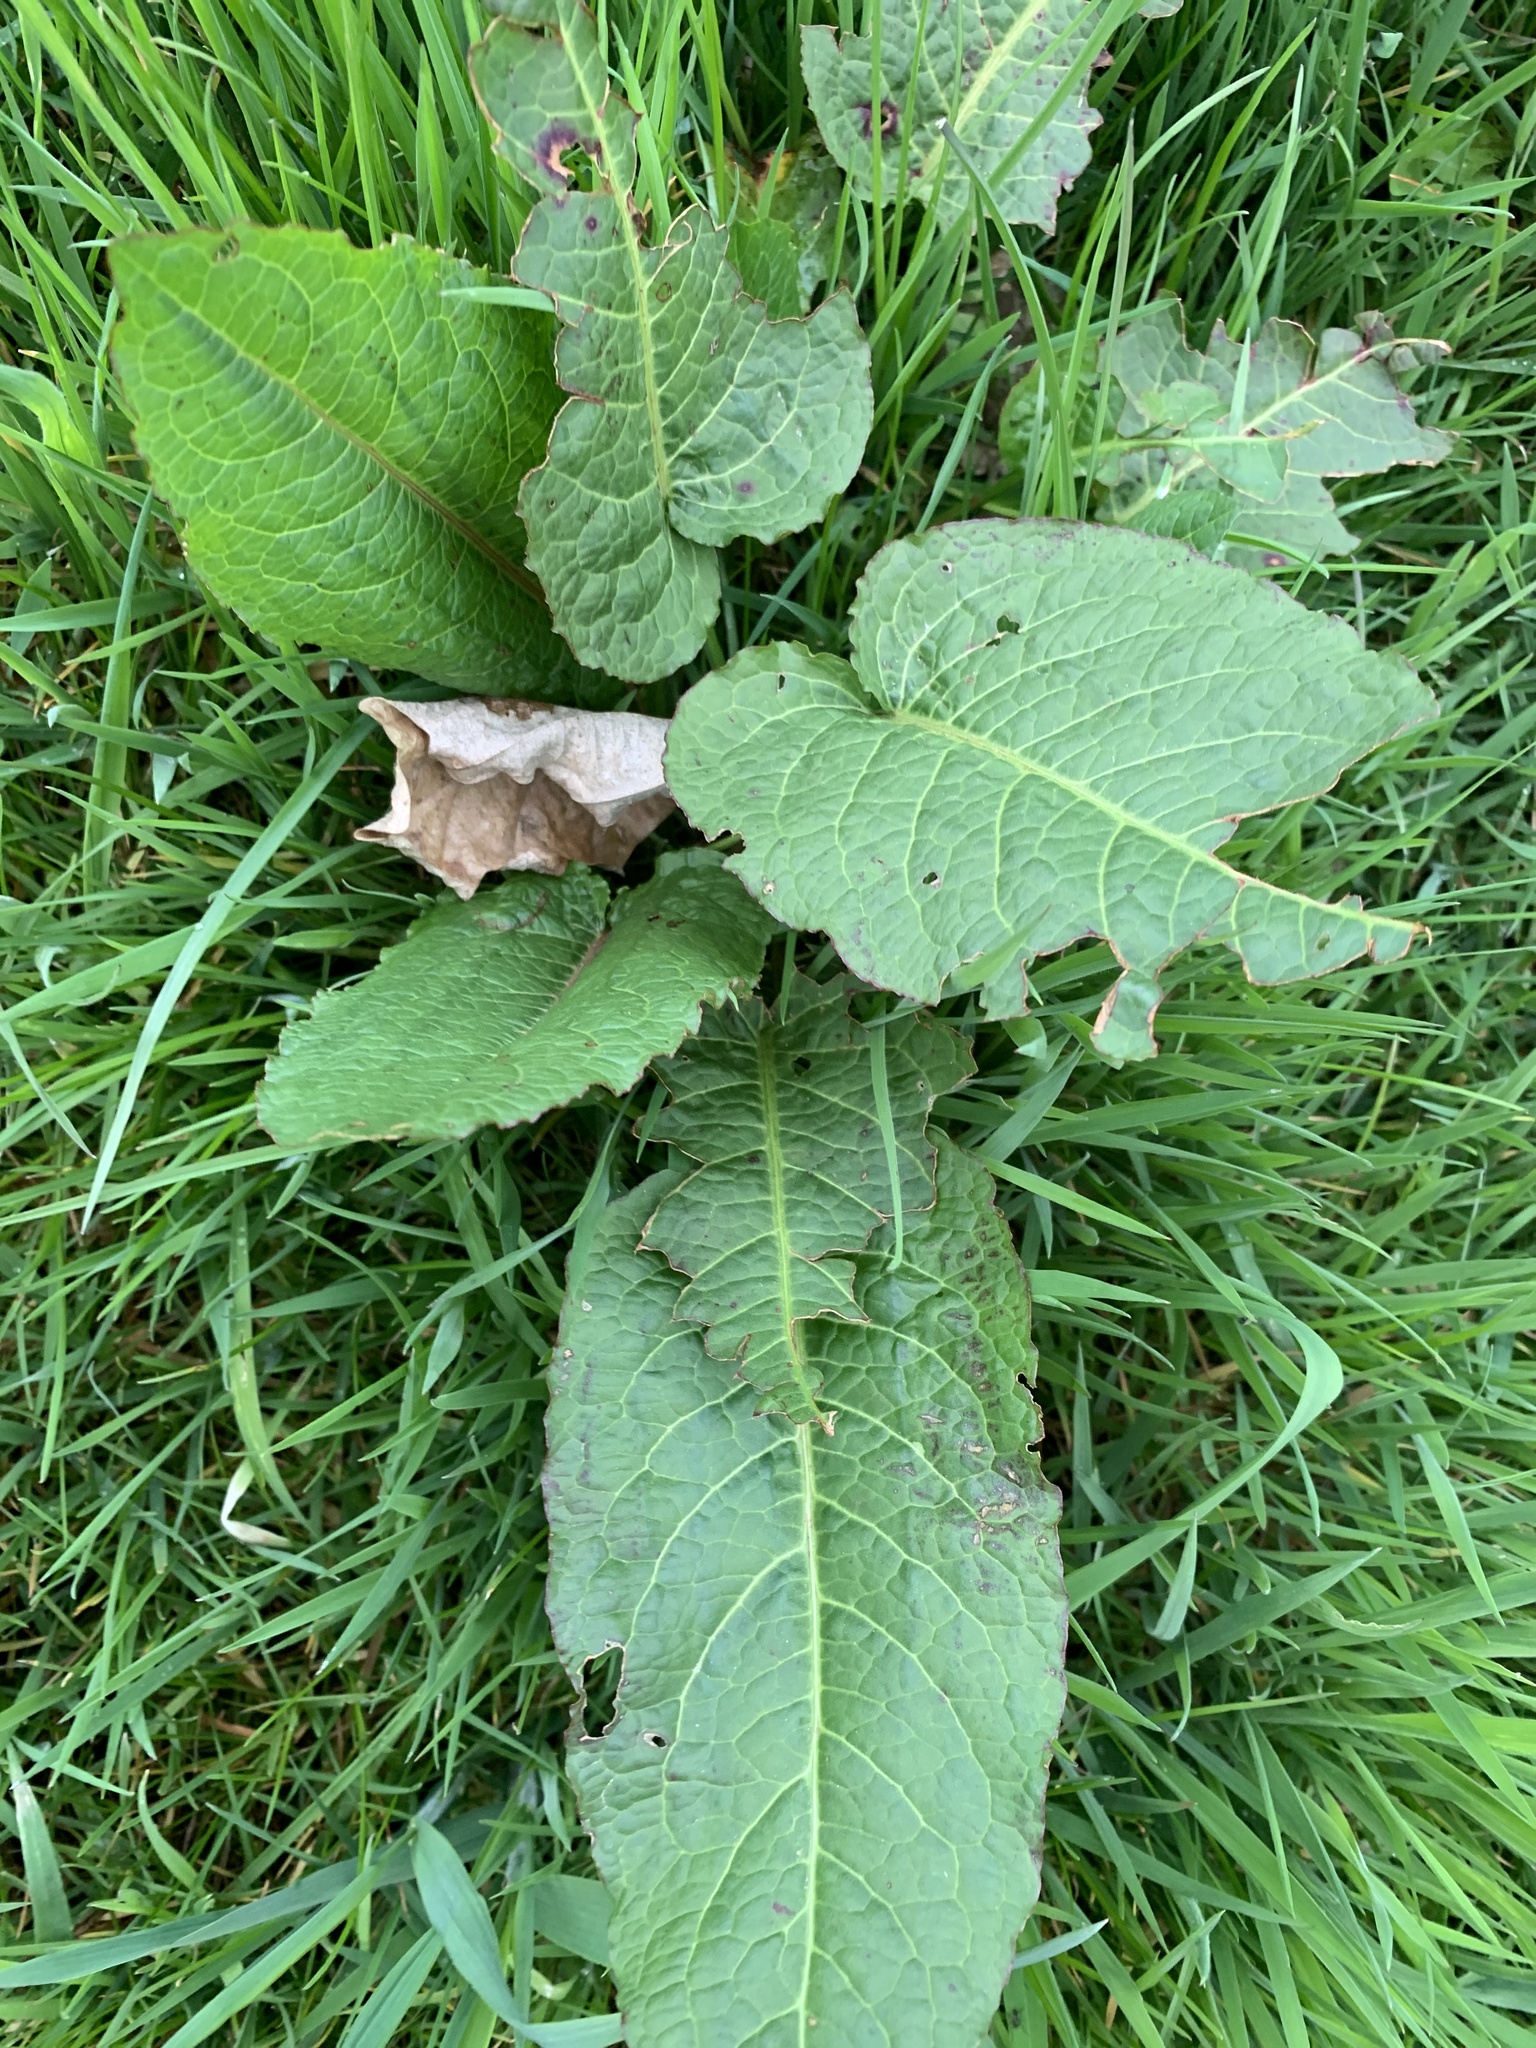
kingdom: Plantae
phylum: Tracheophyta
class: Magnoliopsida
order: Caryophyllales
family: Polygonaceae
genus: Rumex
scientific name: Rumex obtusifolius
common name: Bitter dock
